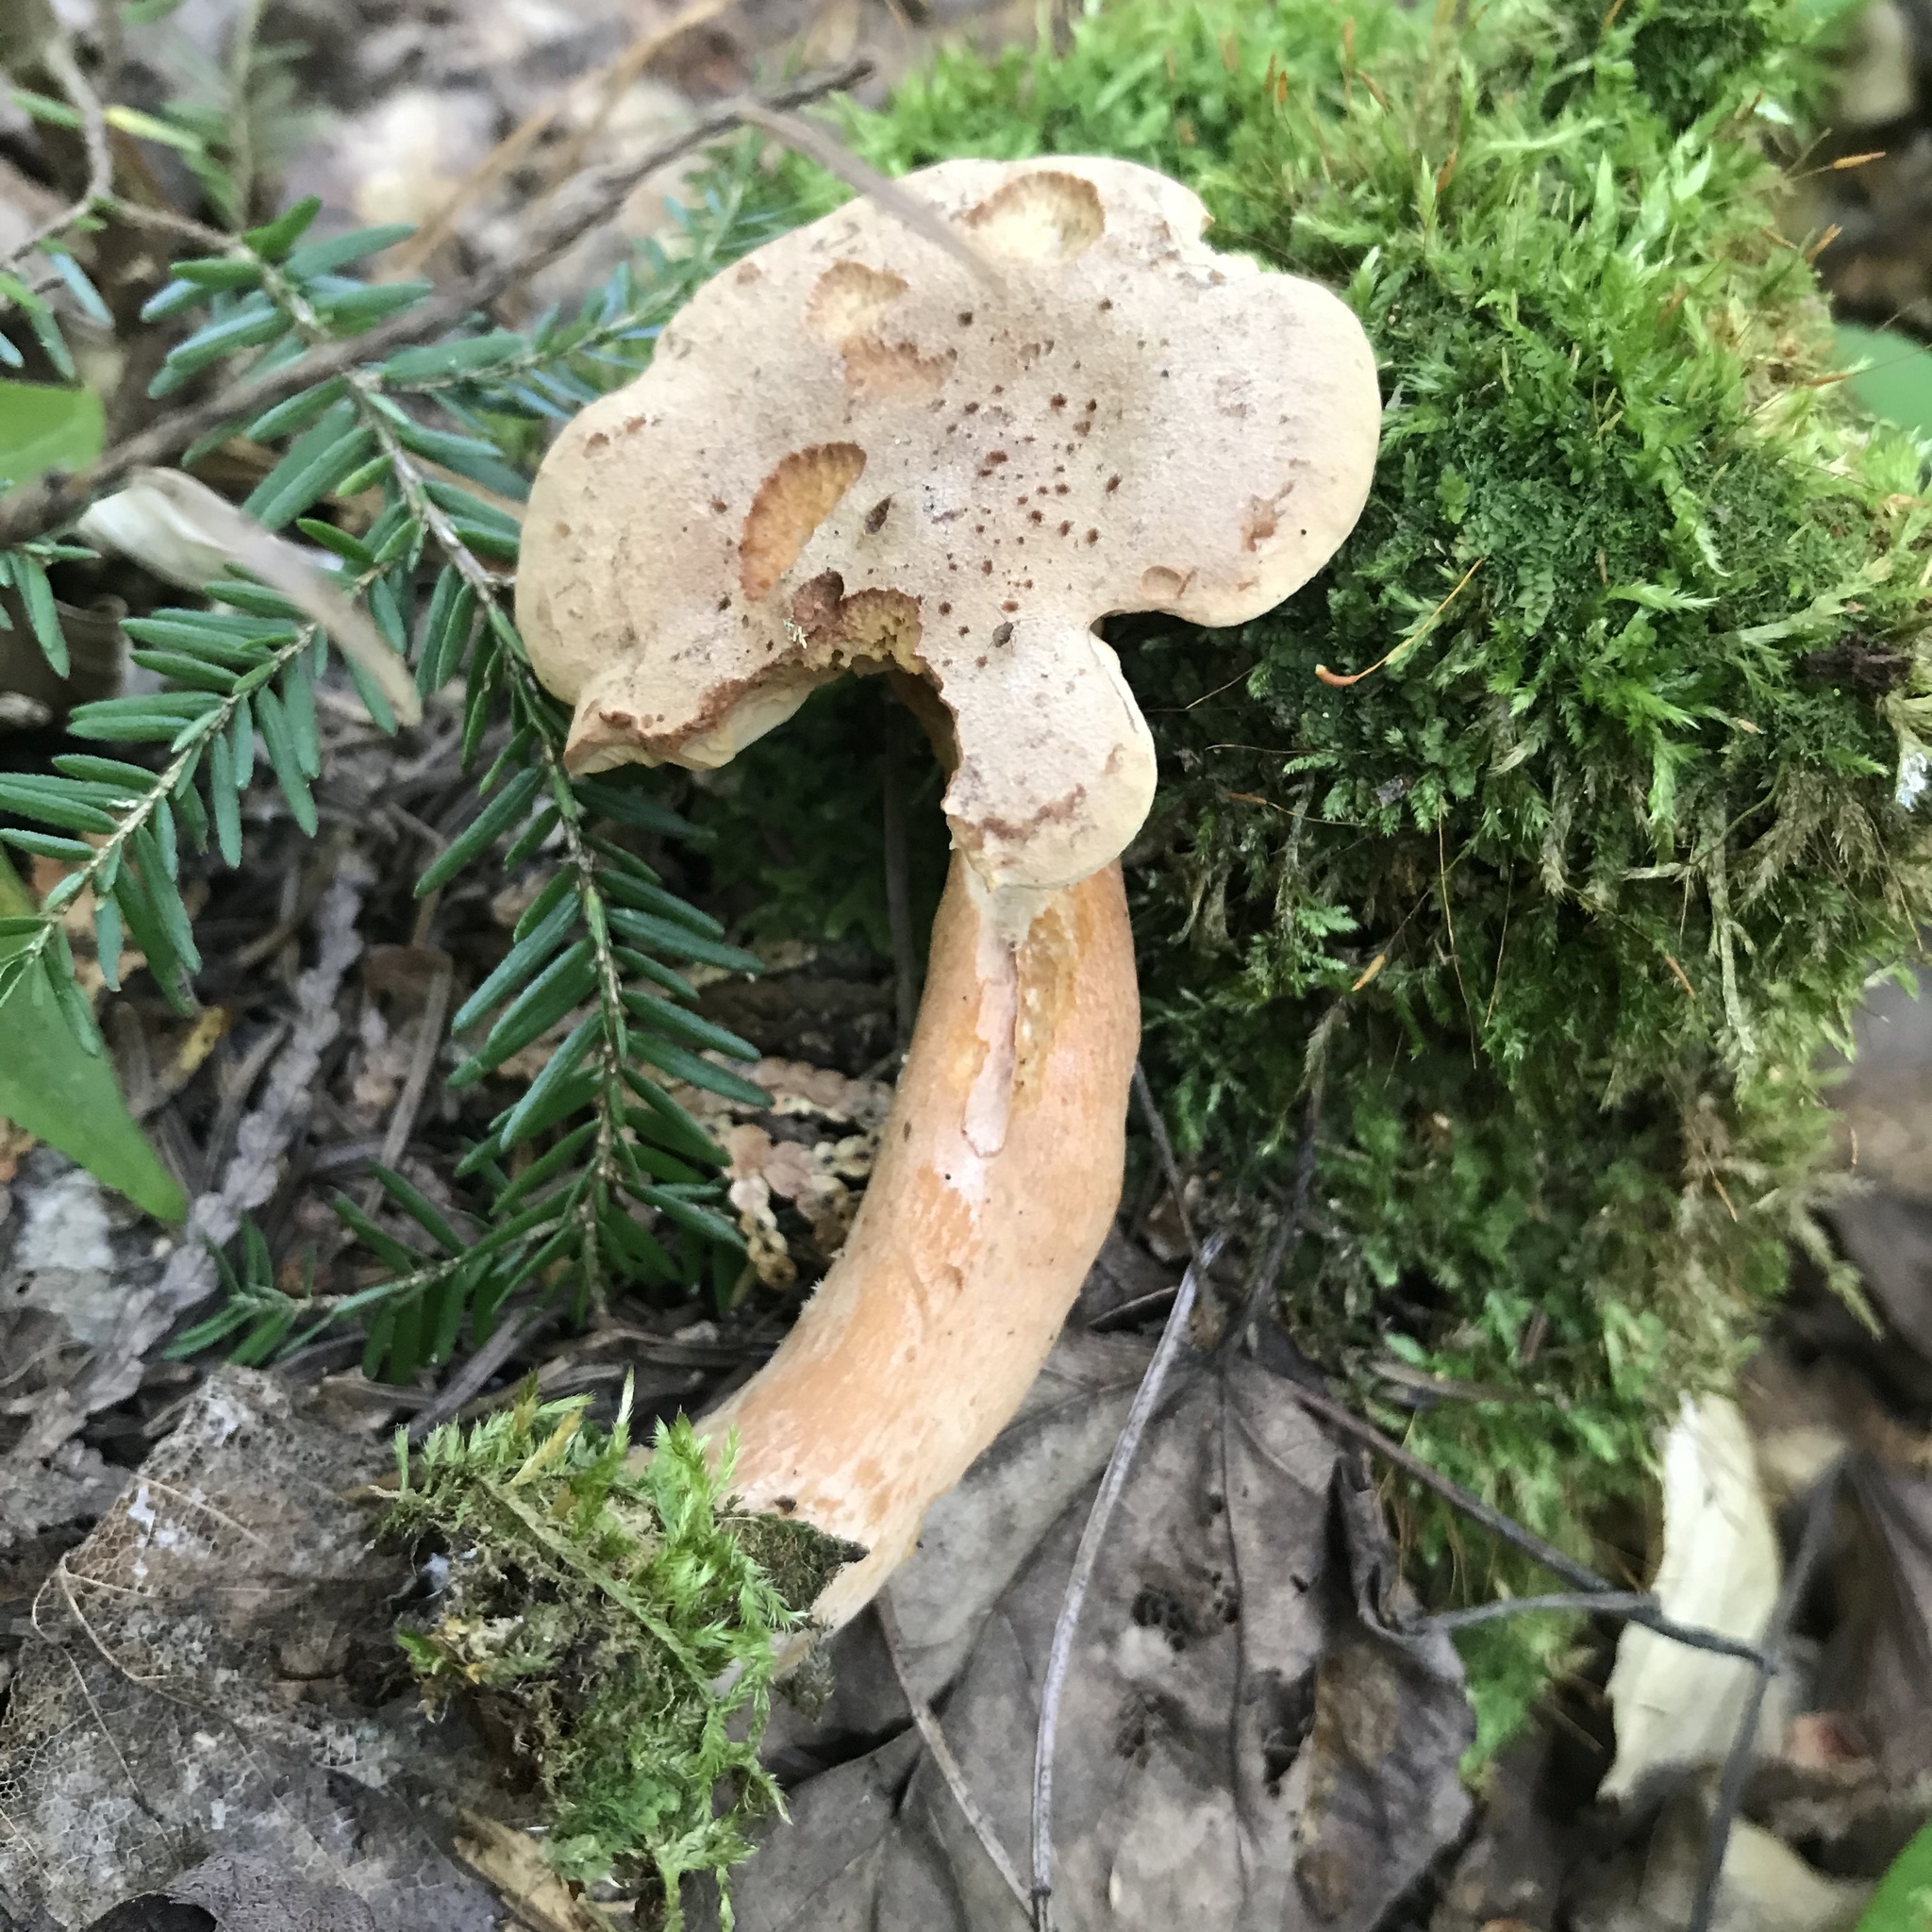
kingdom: Fungi
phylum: Basidiomycota
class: Agaricomycetes
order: Russulales
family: Russulaceae
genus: Lactarius
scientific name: Lactarius helvus
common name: Fenugreek milkcap
